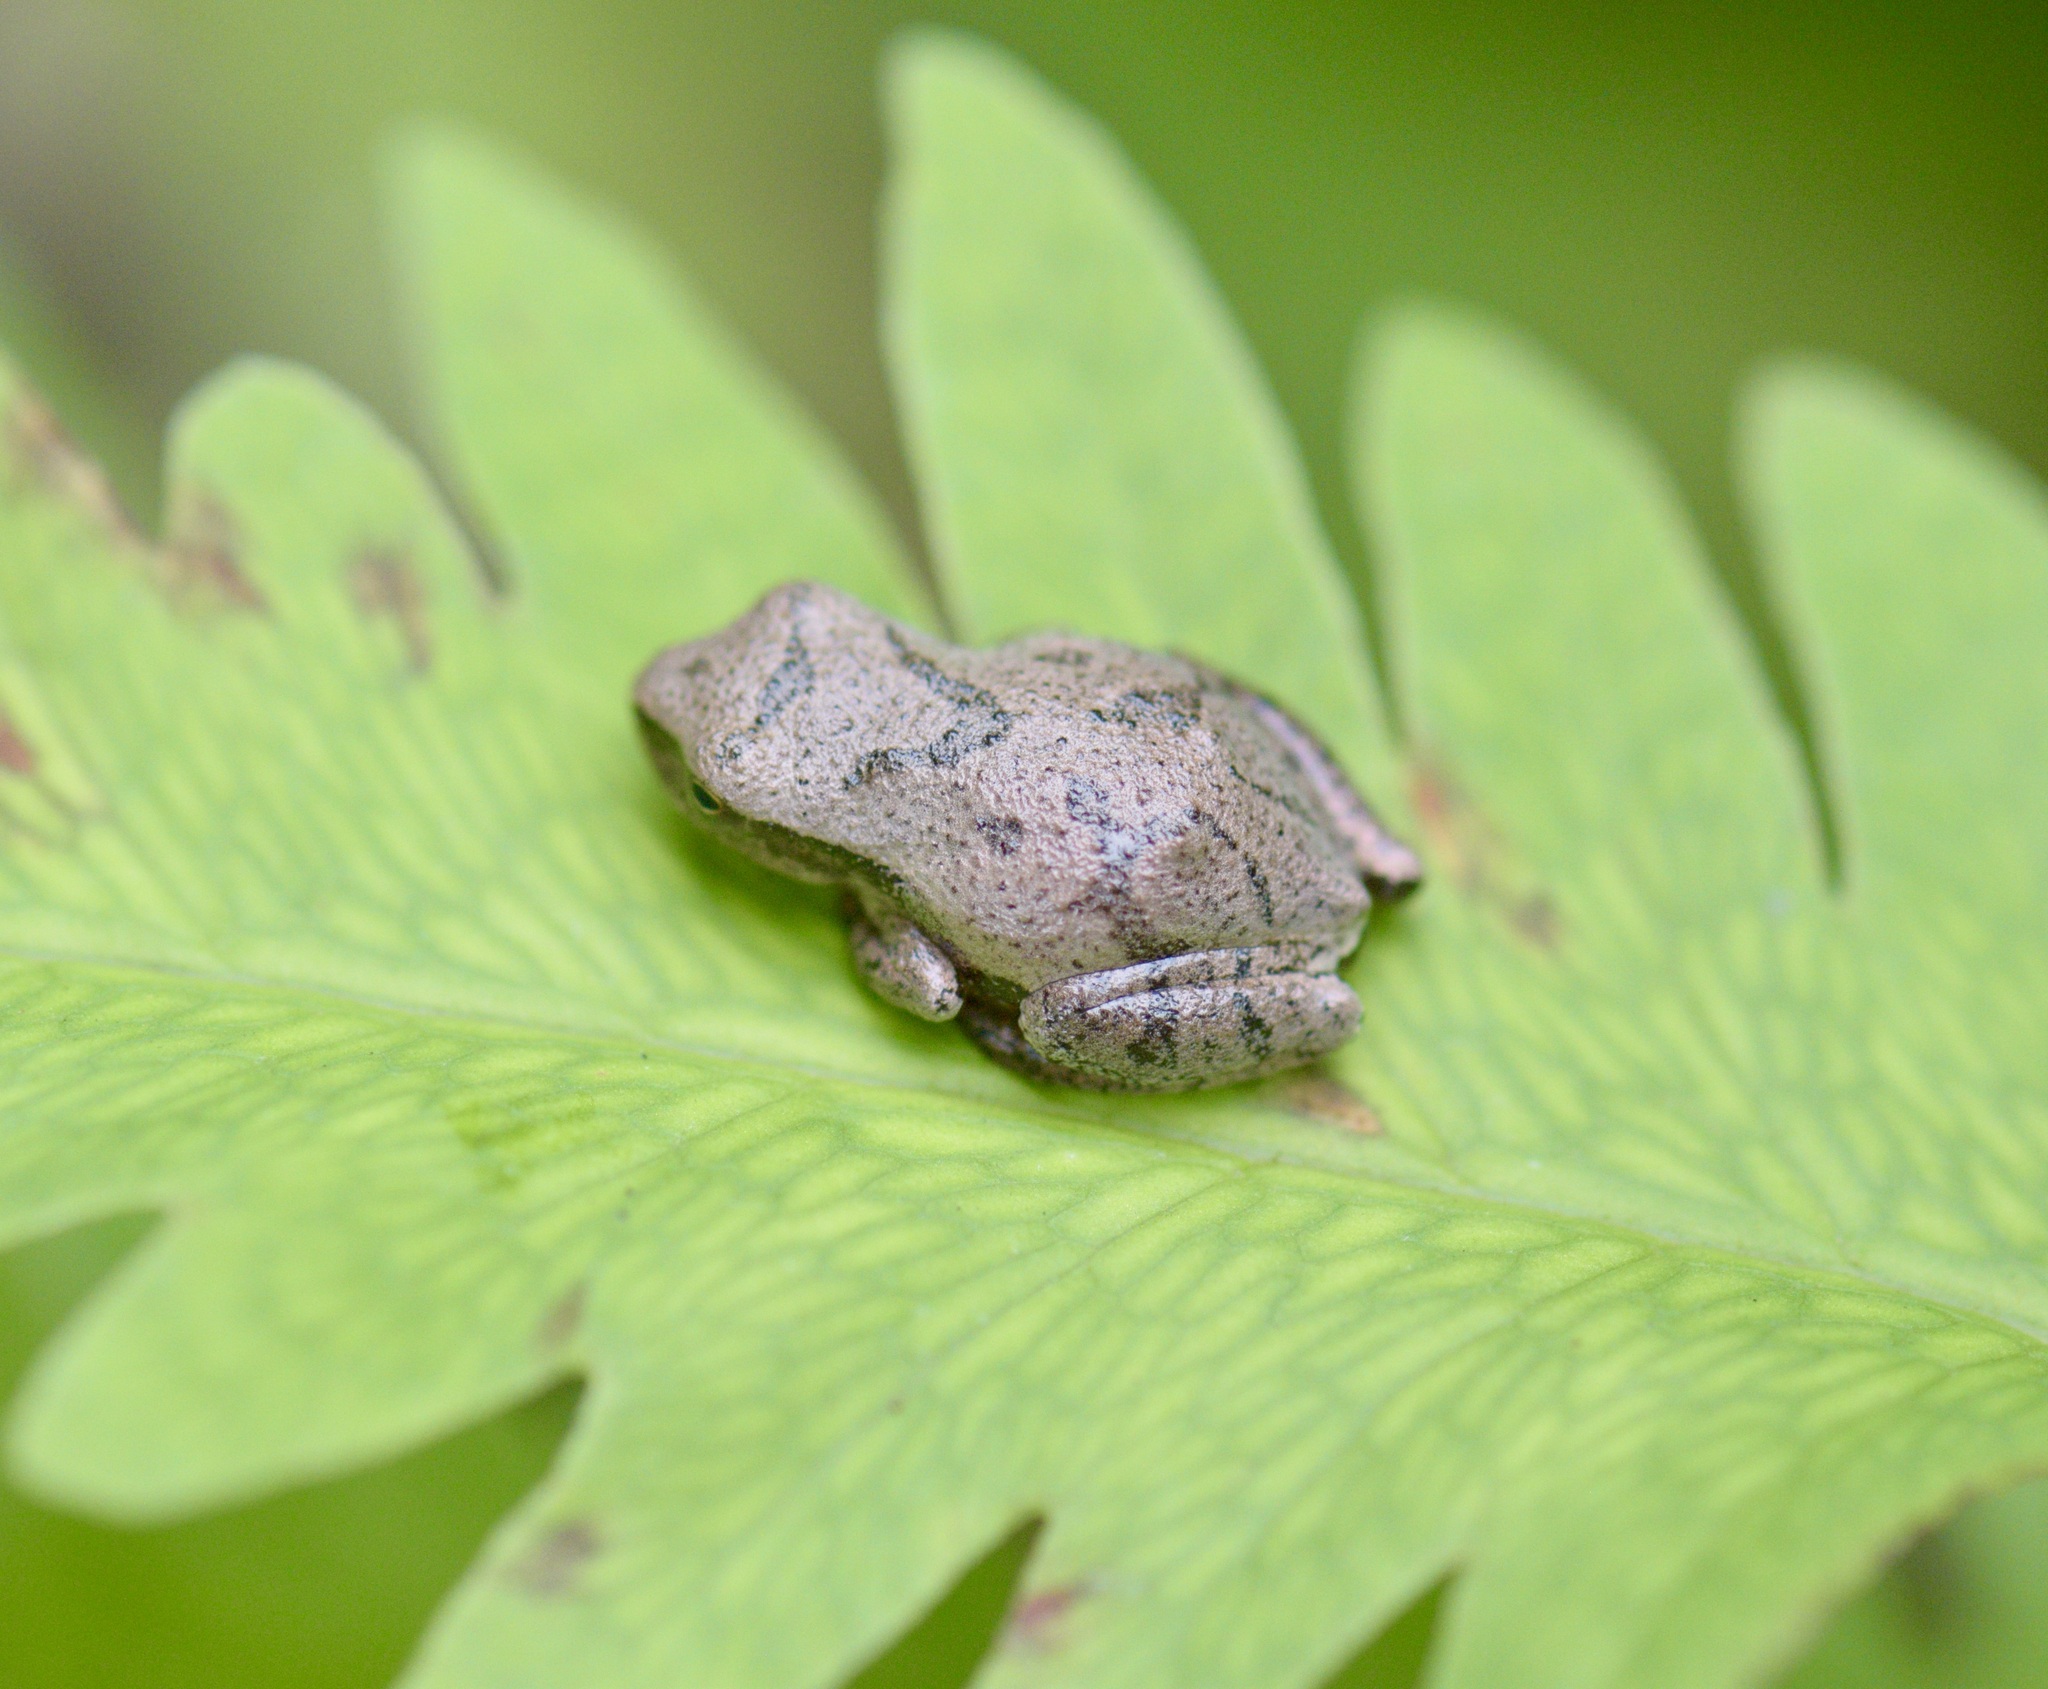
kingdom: Animalia
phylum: Chordata
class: Amphibia
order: Anura
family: Hylidae
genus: Pseudacris
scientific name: Pseudacris crucifer
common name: Spring peeper
